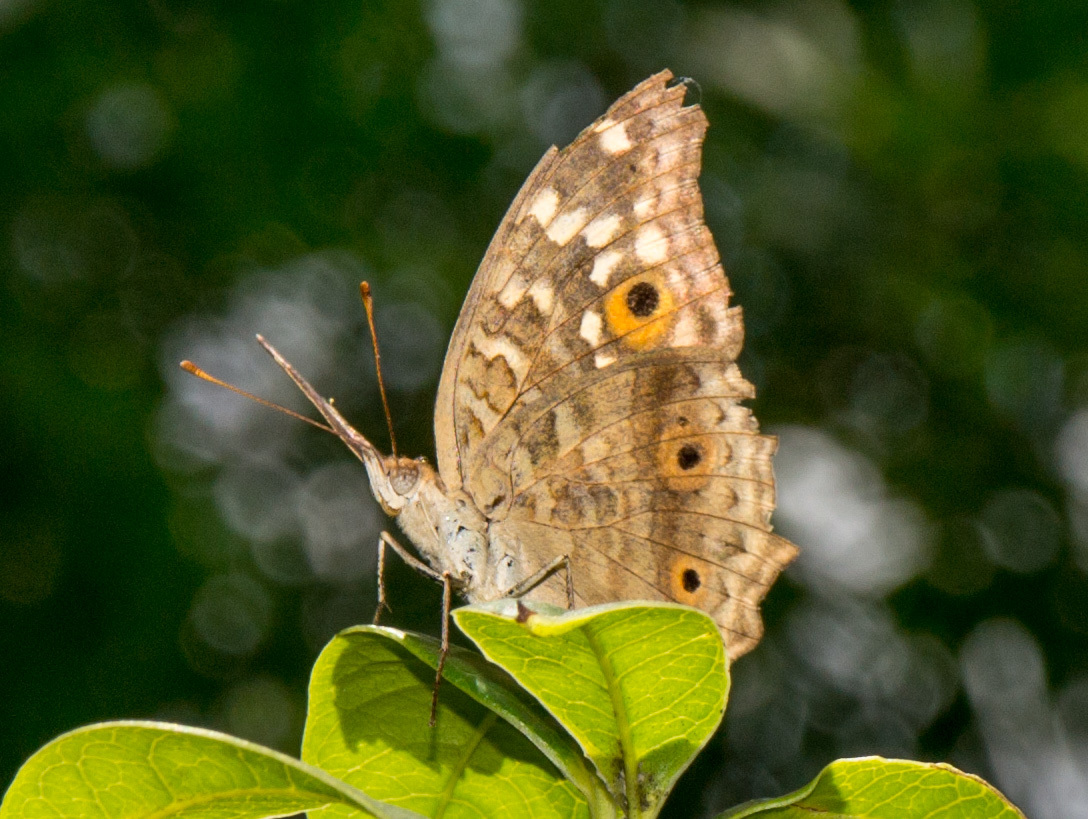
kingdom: Animalia
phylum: Arthropoda
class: Insecta
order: Lepidoptera
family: Nymphalidae
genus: Junonia
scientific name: Junonia lemonias
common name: Lemon pansy
